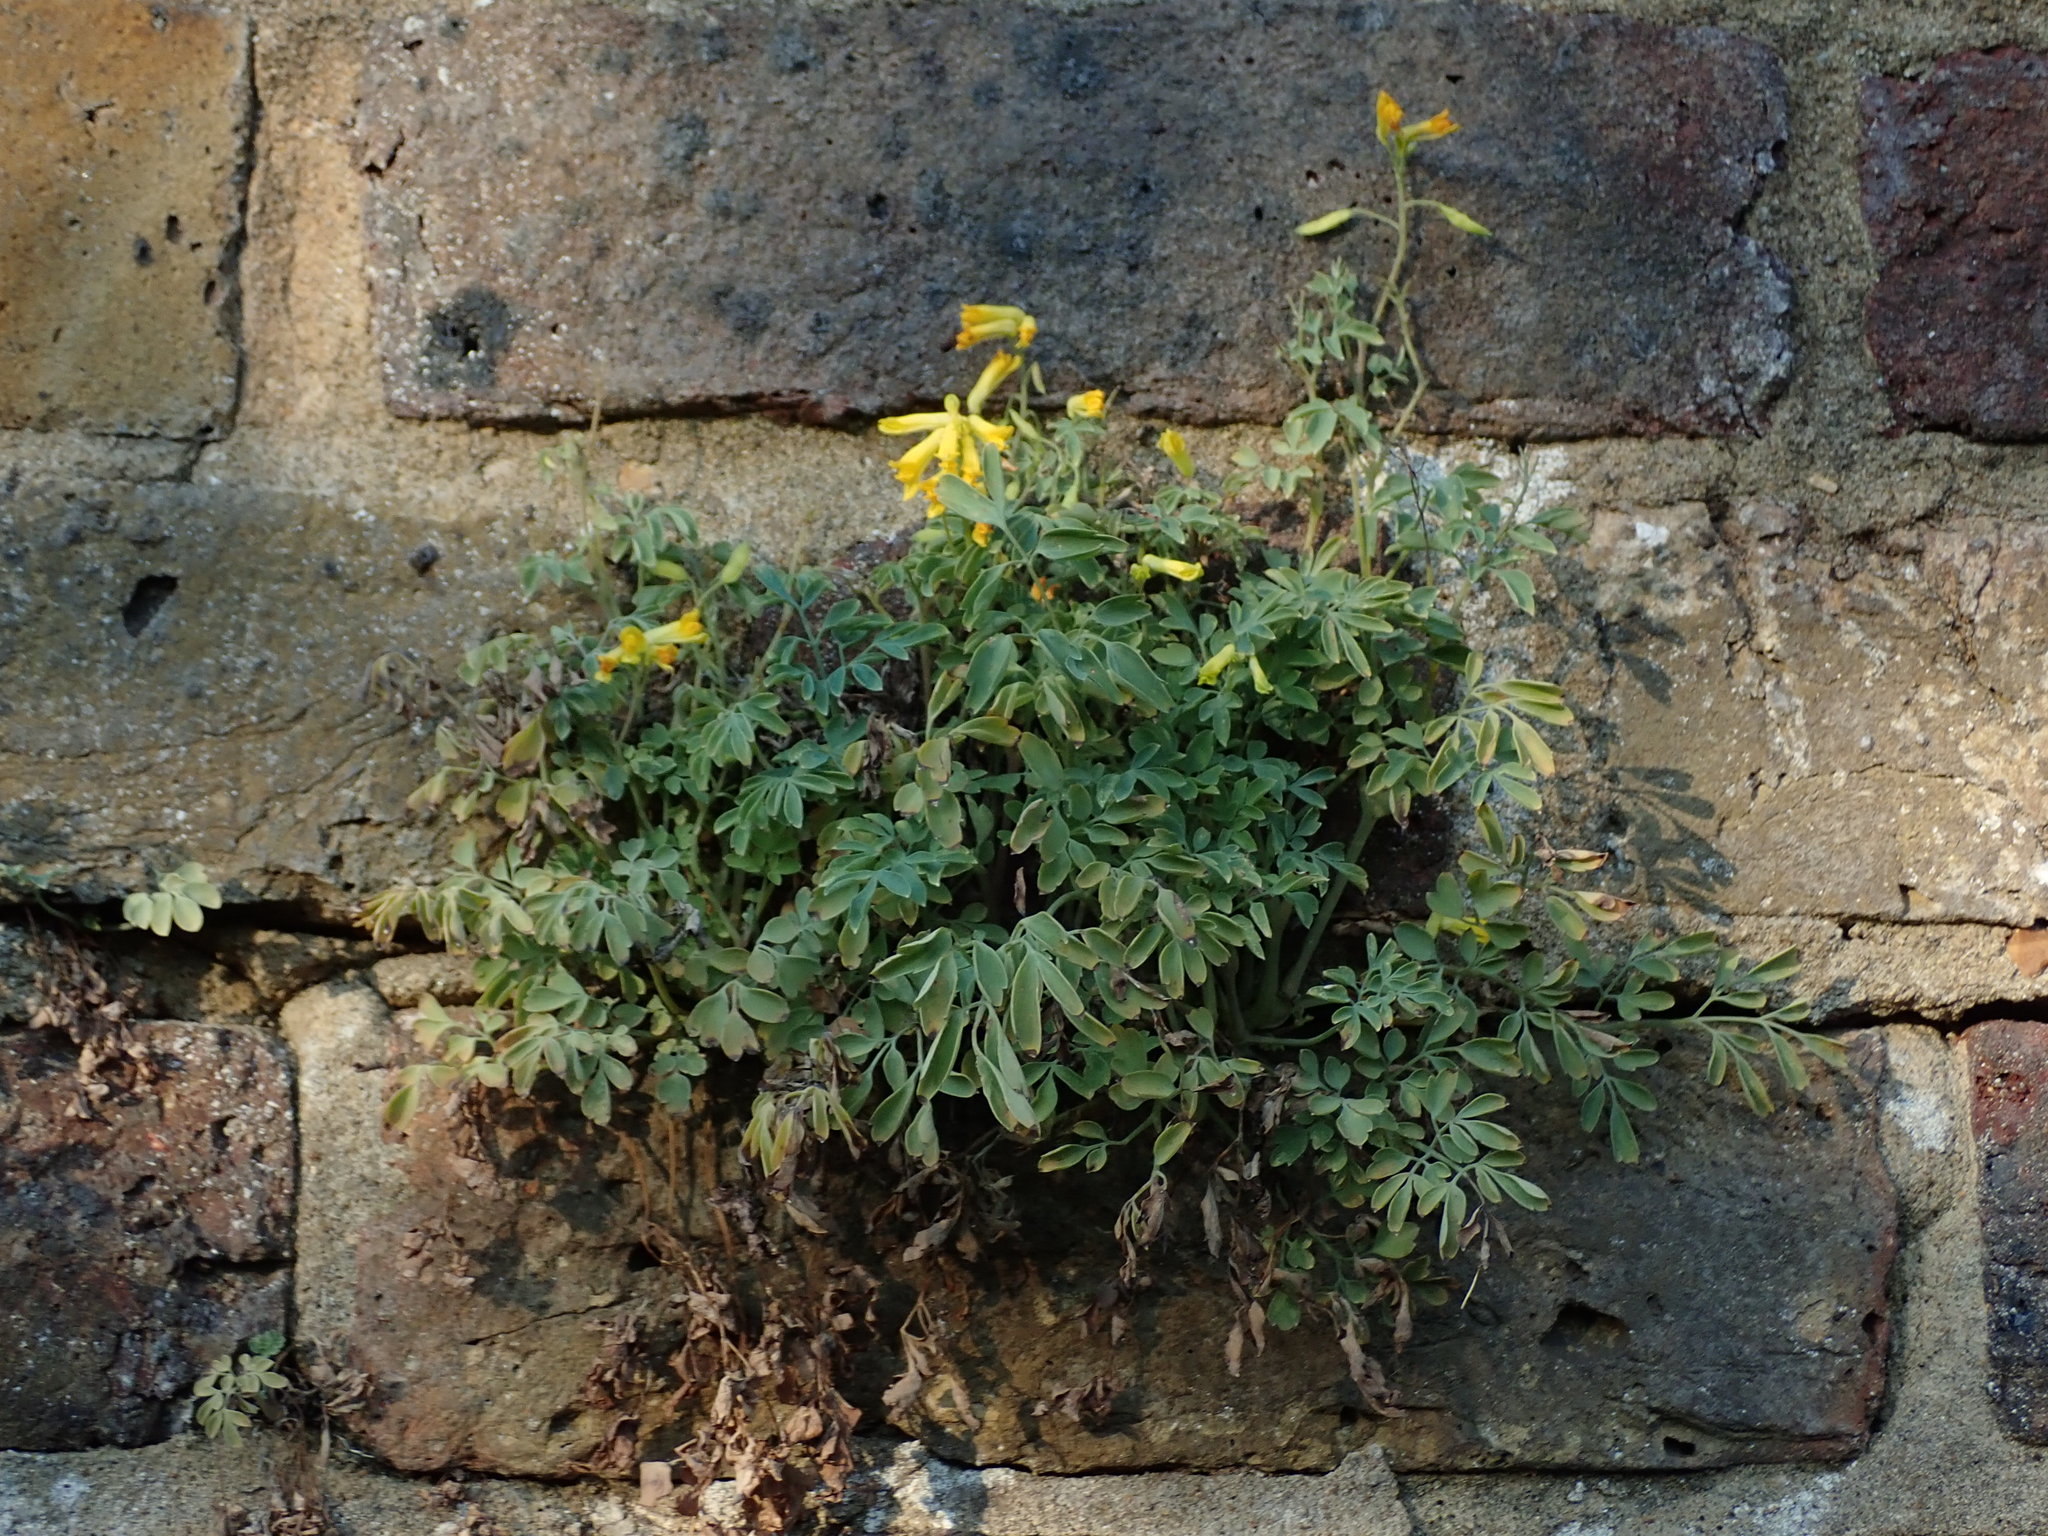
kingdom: Plantae
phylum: Tracheophyta
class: Magnoliopsida
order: Ranunculales
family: Papaveraceae
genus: Pseudofumaria
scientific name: Pseudofumaria lutea
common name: Yellow corydalis
